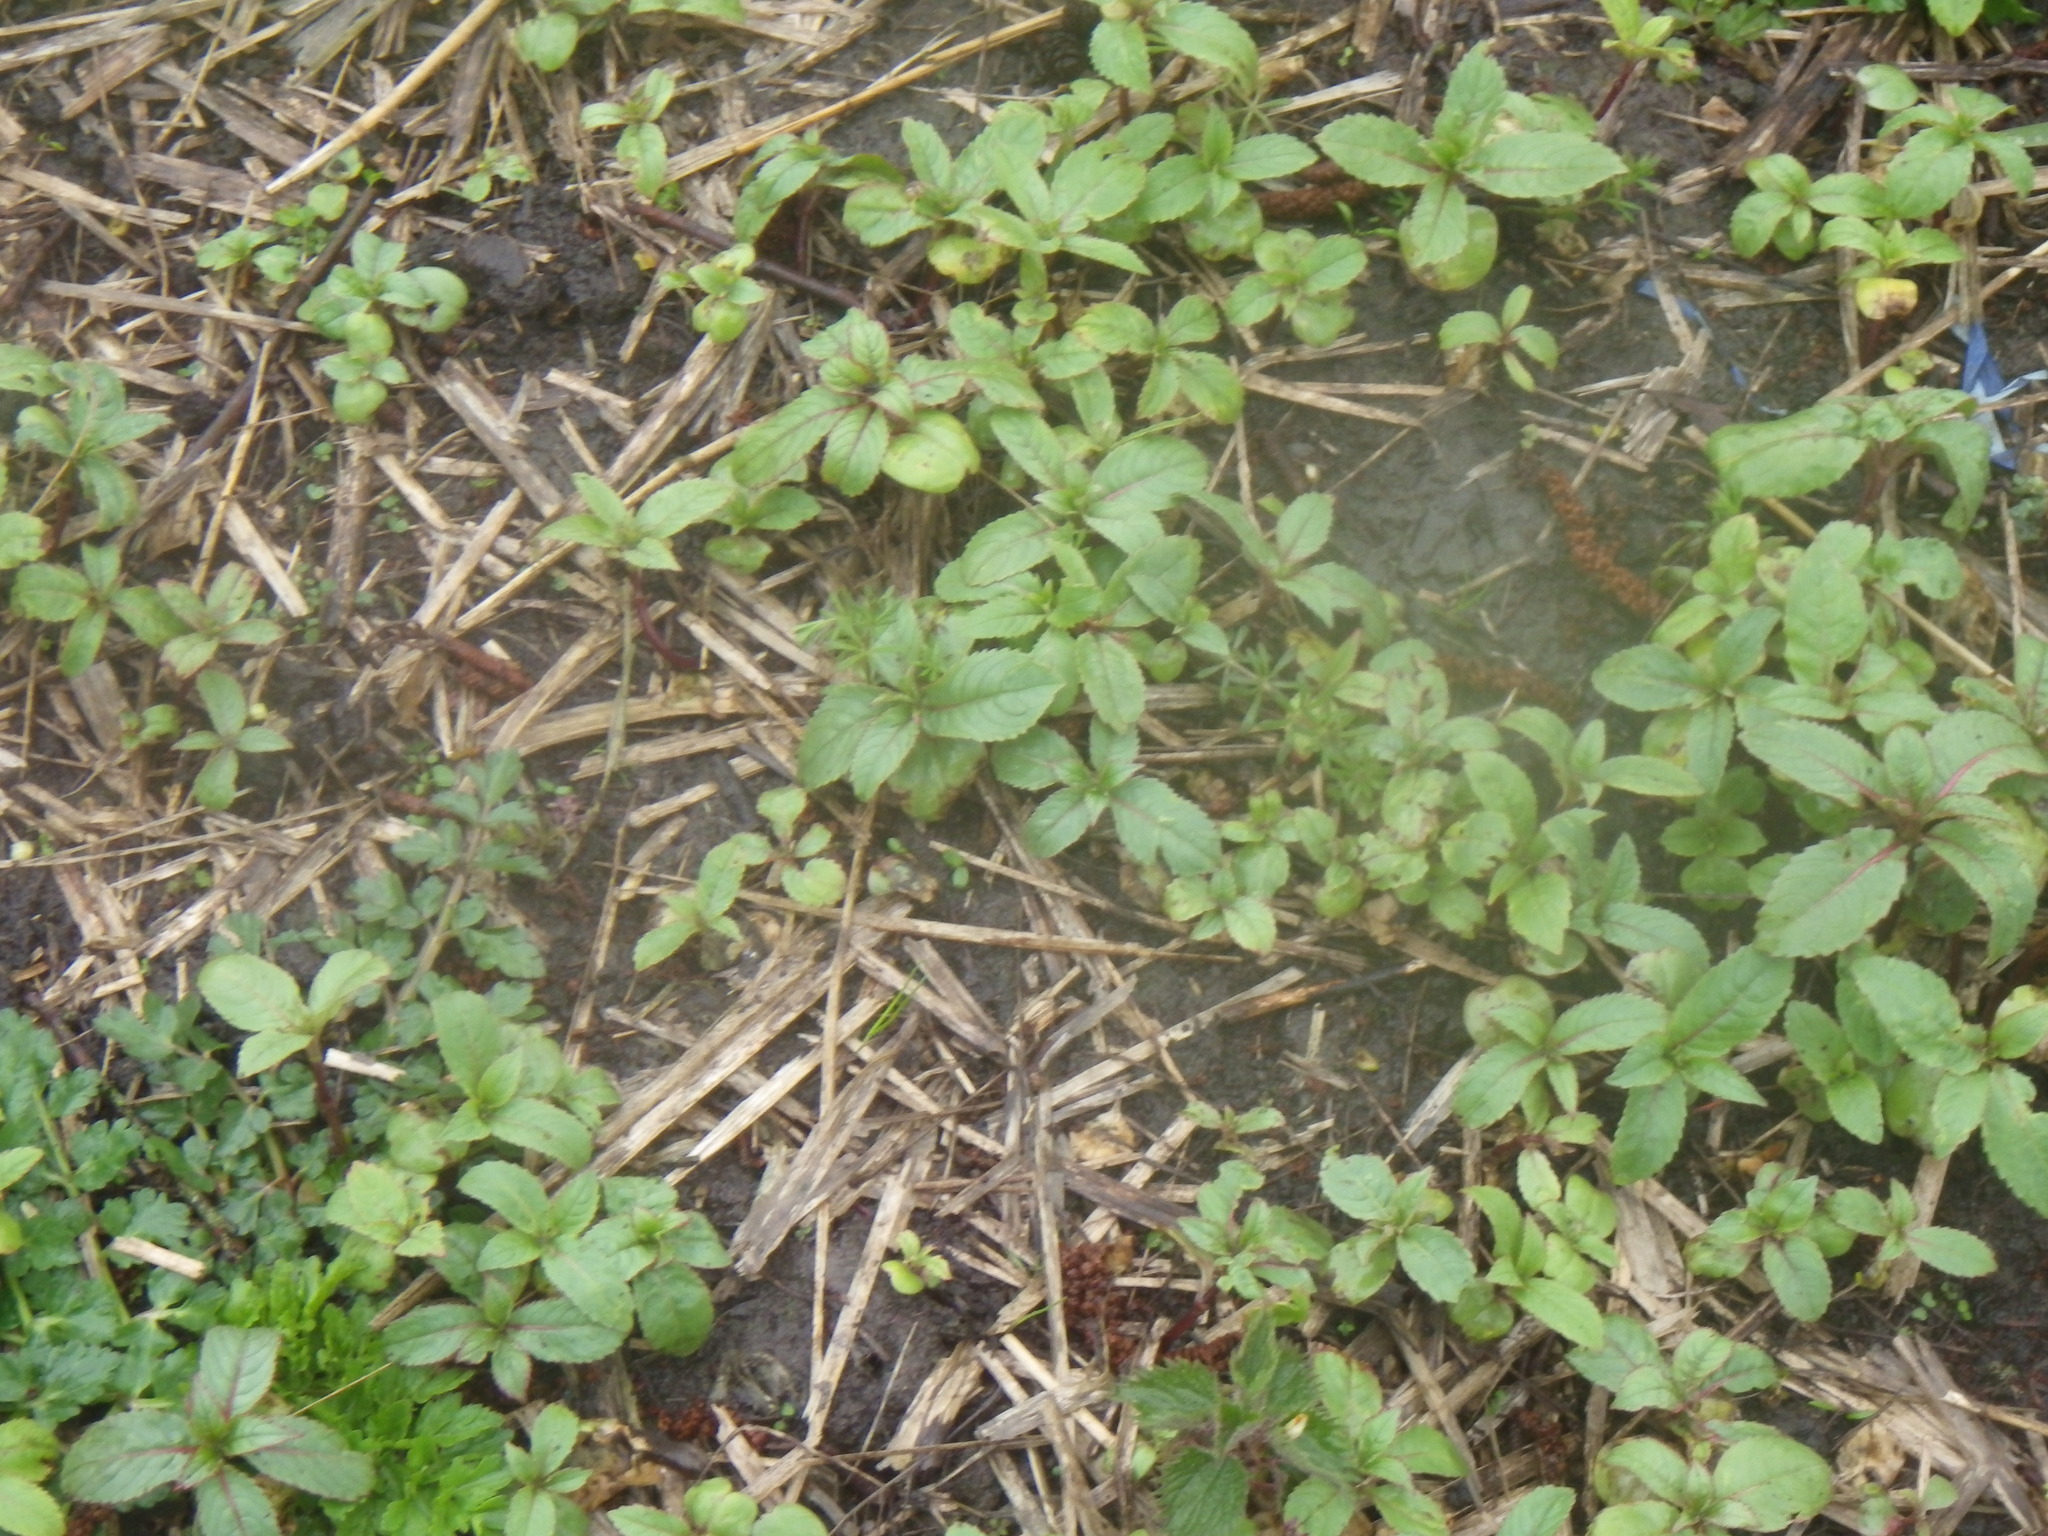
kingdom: Plantae
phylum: Tracheophyta
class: Magnoliopsida
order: Ericales
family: Balsaminaceae
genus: Impatiens
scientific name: Impatiens glandulifera
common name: Himalayan balsam
